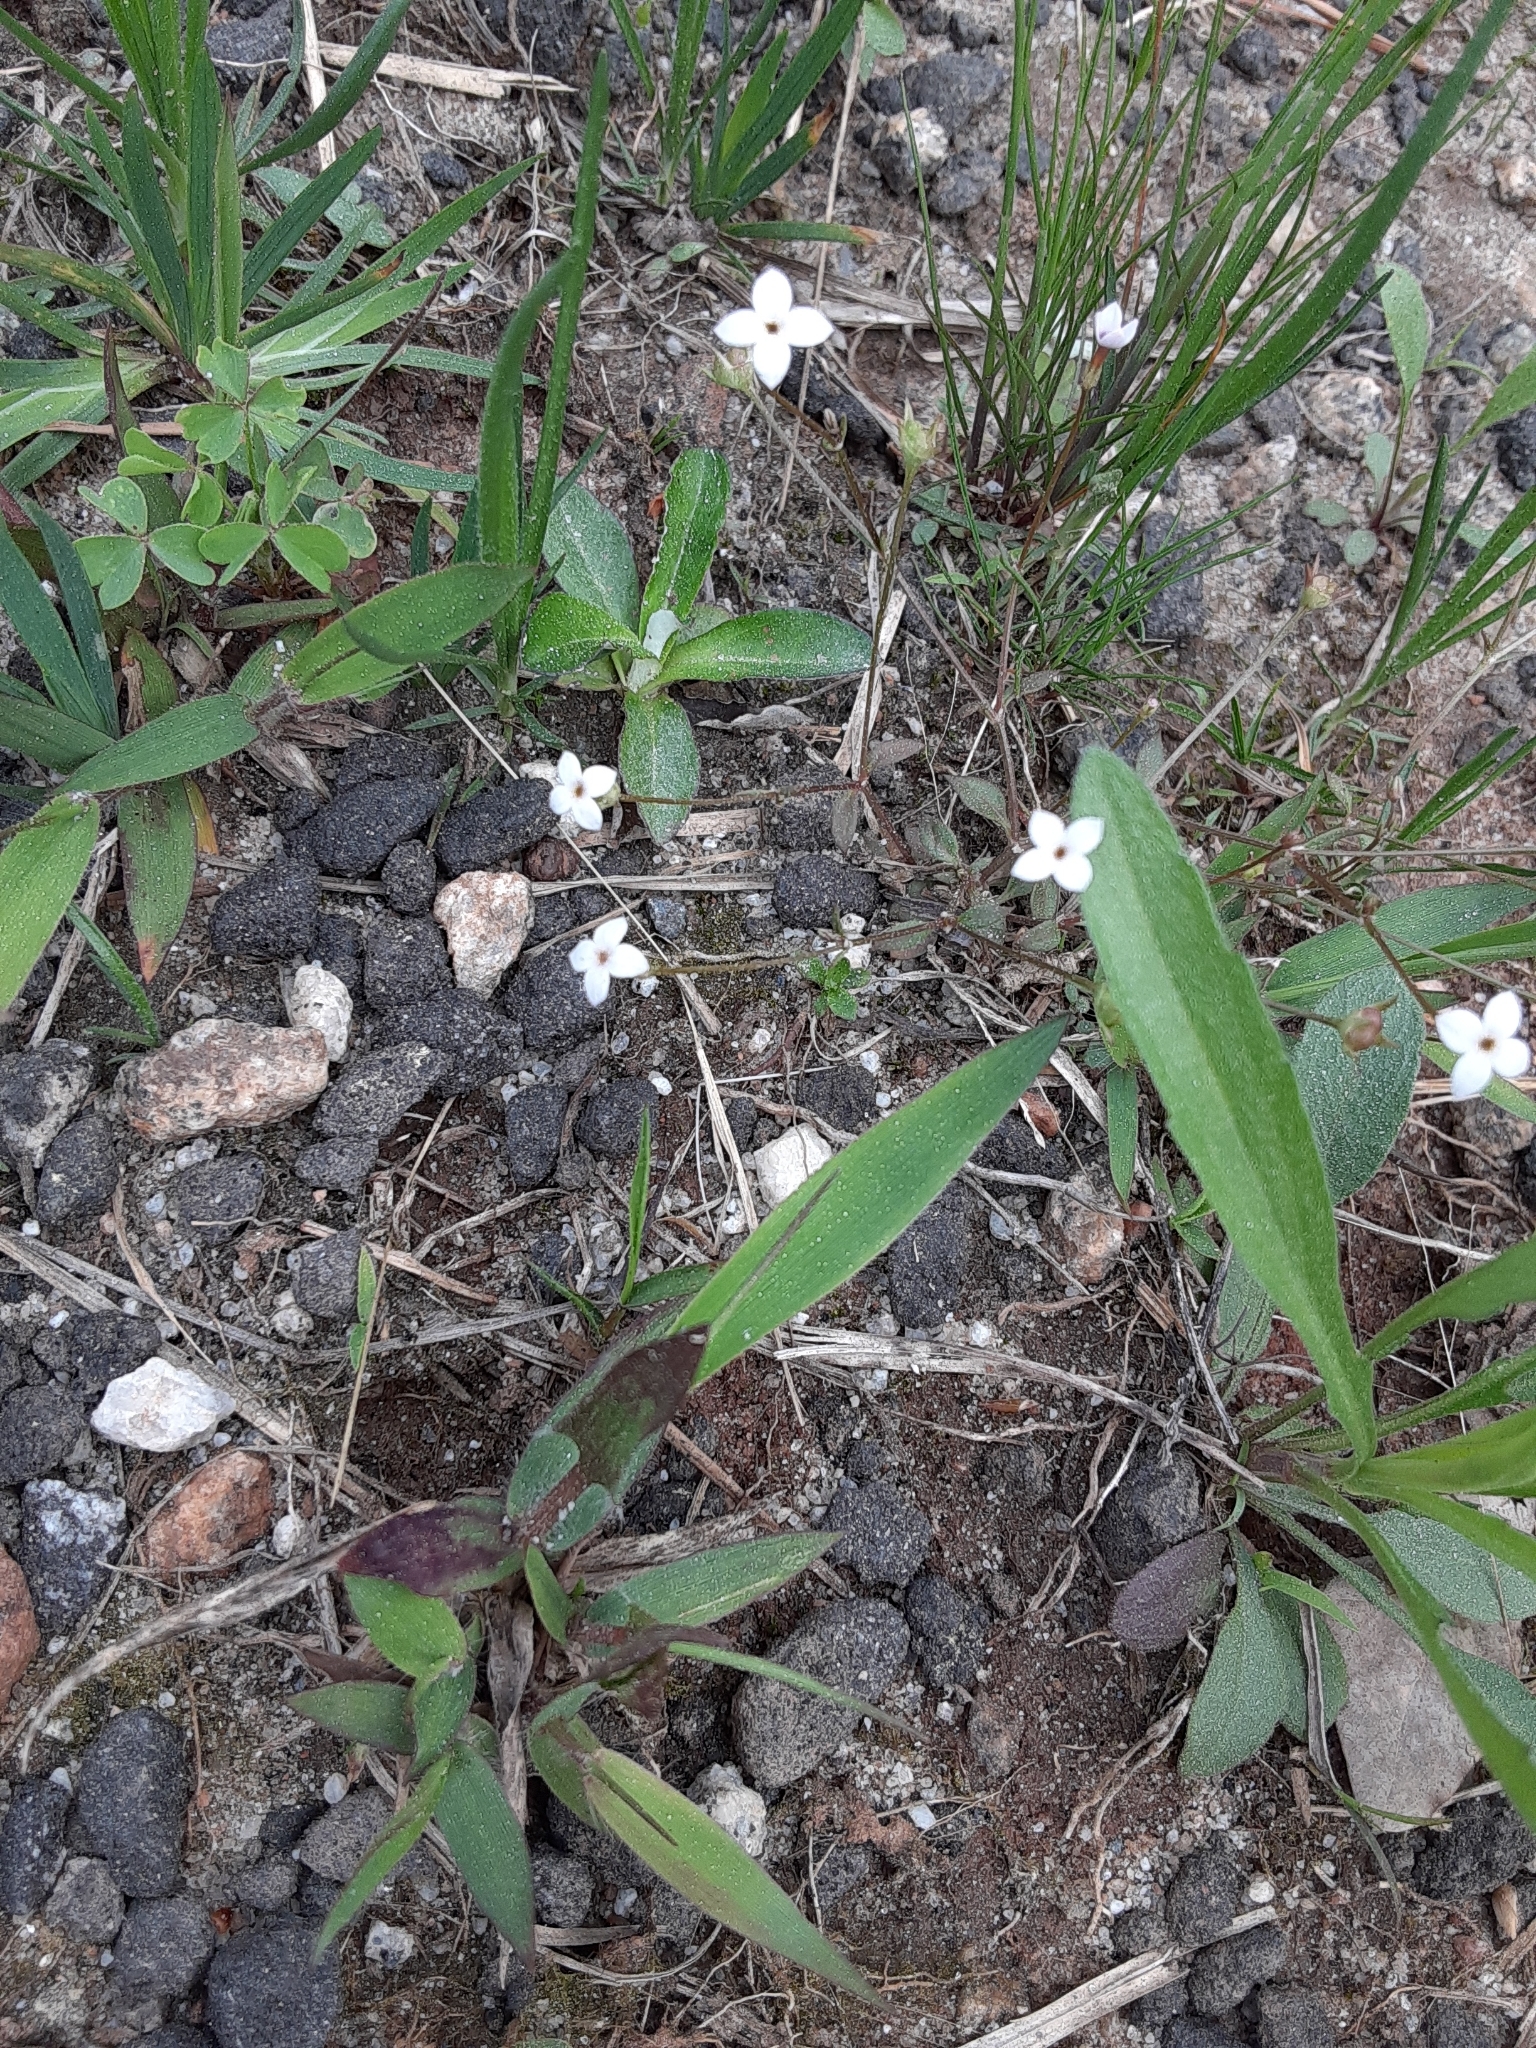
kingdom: Plantae
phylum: Tracheophyta
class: Magnoliopsida
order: Gentianales
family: Rubiaceae
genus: Houstonia
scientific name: Houstonia pusilla
